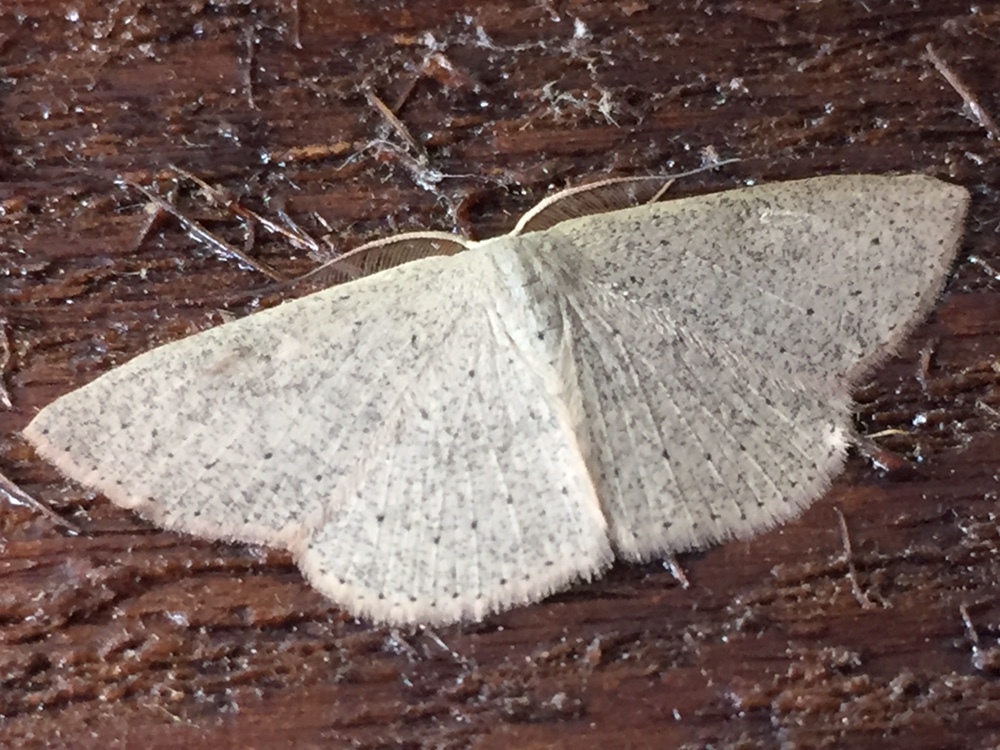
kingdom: Animalia
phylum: Arthropoda
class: Insecta
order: Lepidoptera
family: Geometridae
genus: Cyclophora
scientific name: Cyclophora obstataria
